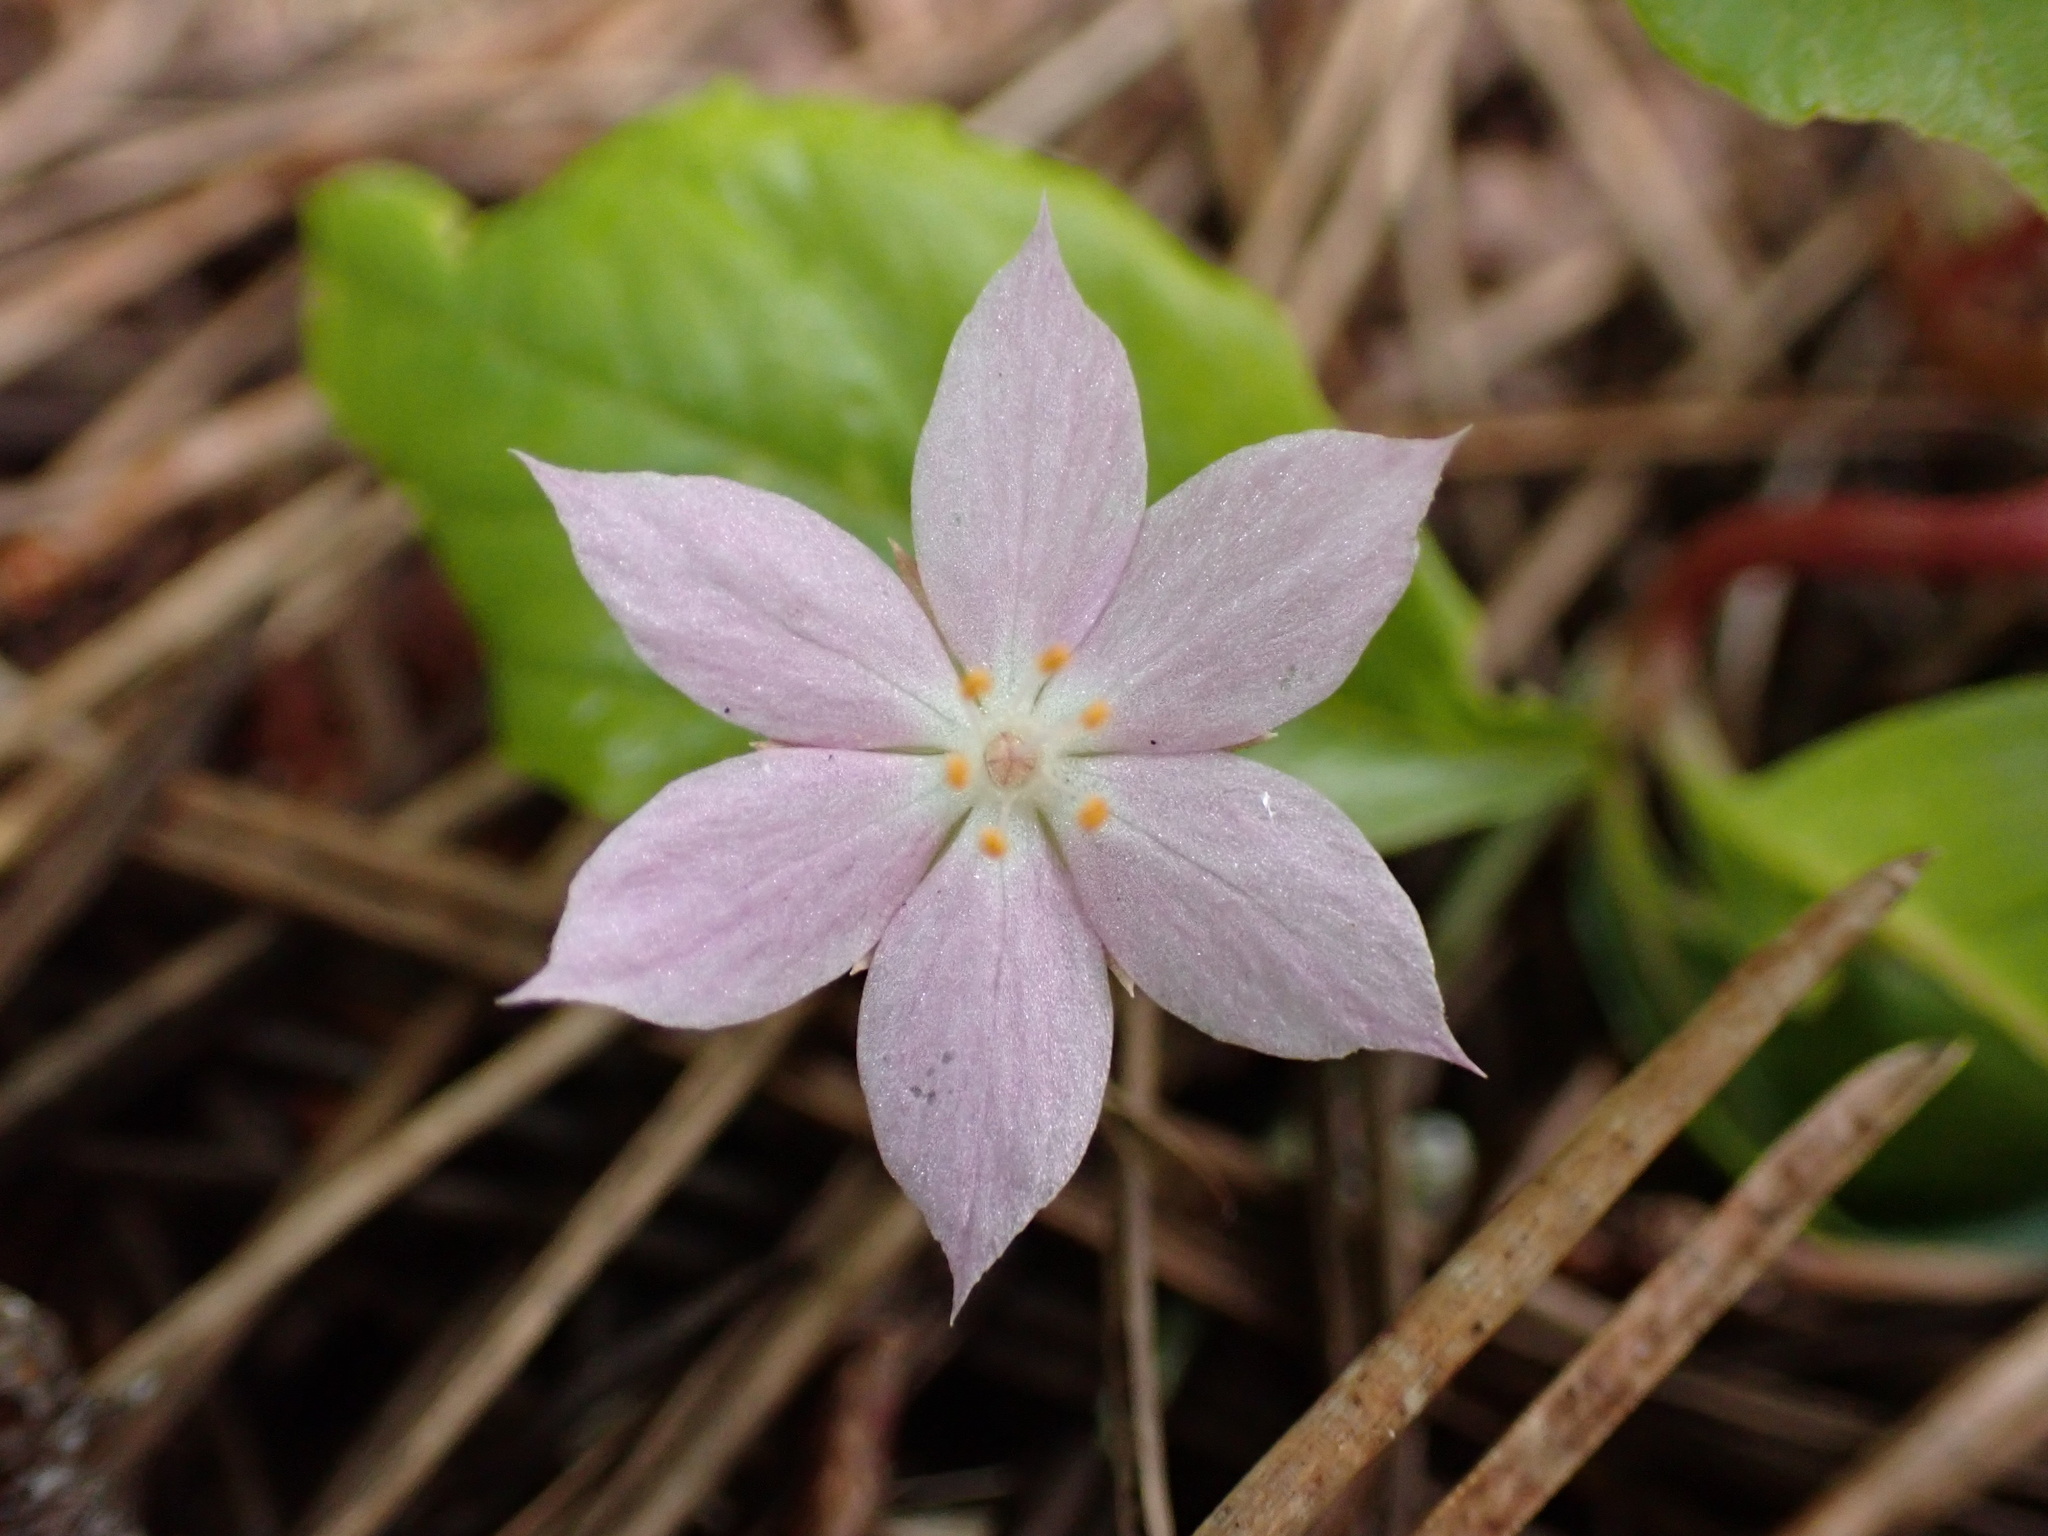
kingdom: Plantae
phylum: Tracheophyta
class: Magnoliopsida
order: Ericales
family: Primulaceae
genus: Lysimachia
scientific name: Lysimachia latifolia
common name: Pacific starflower
